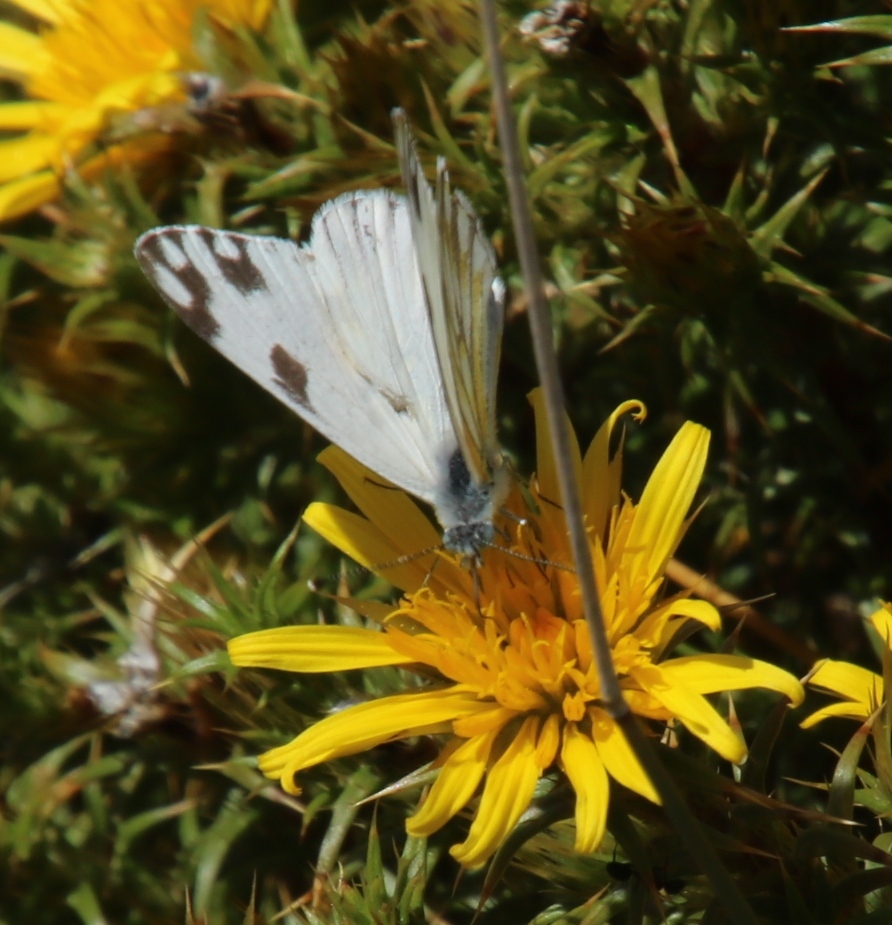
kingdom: Animalia
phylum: Arthropoda
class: Insecta
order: Lepidoptera
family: Pieridae
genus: Pontia
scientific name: Pontia helice
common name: Meadow white
